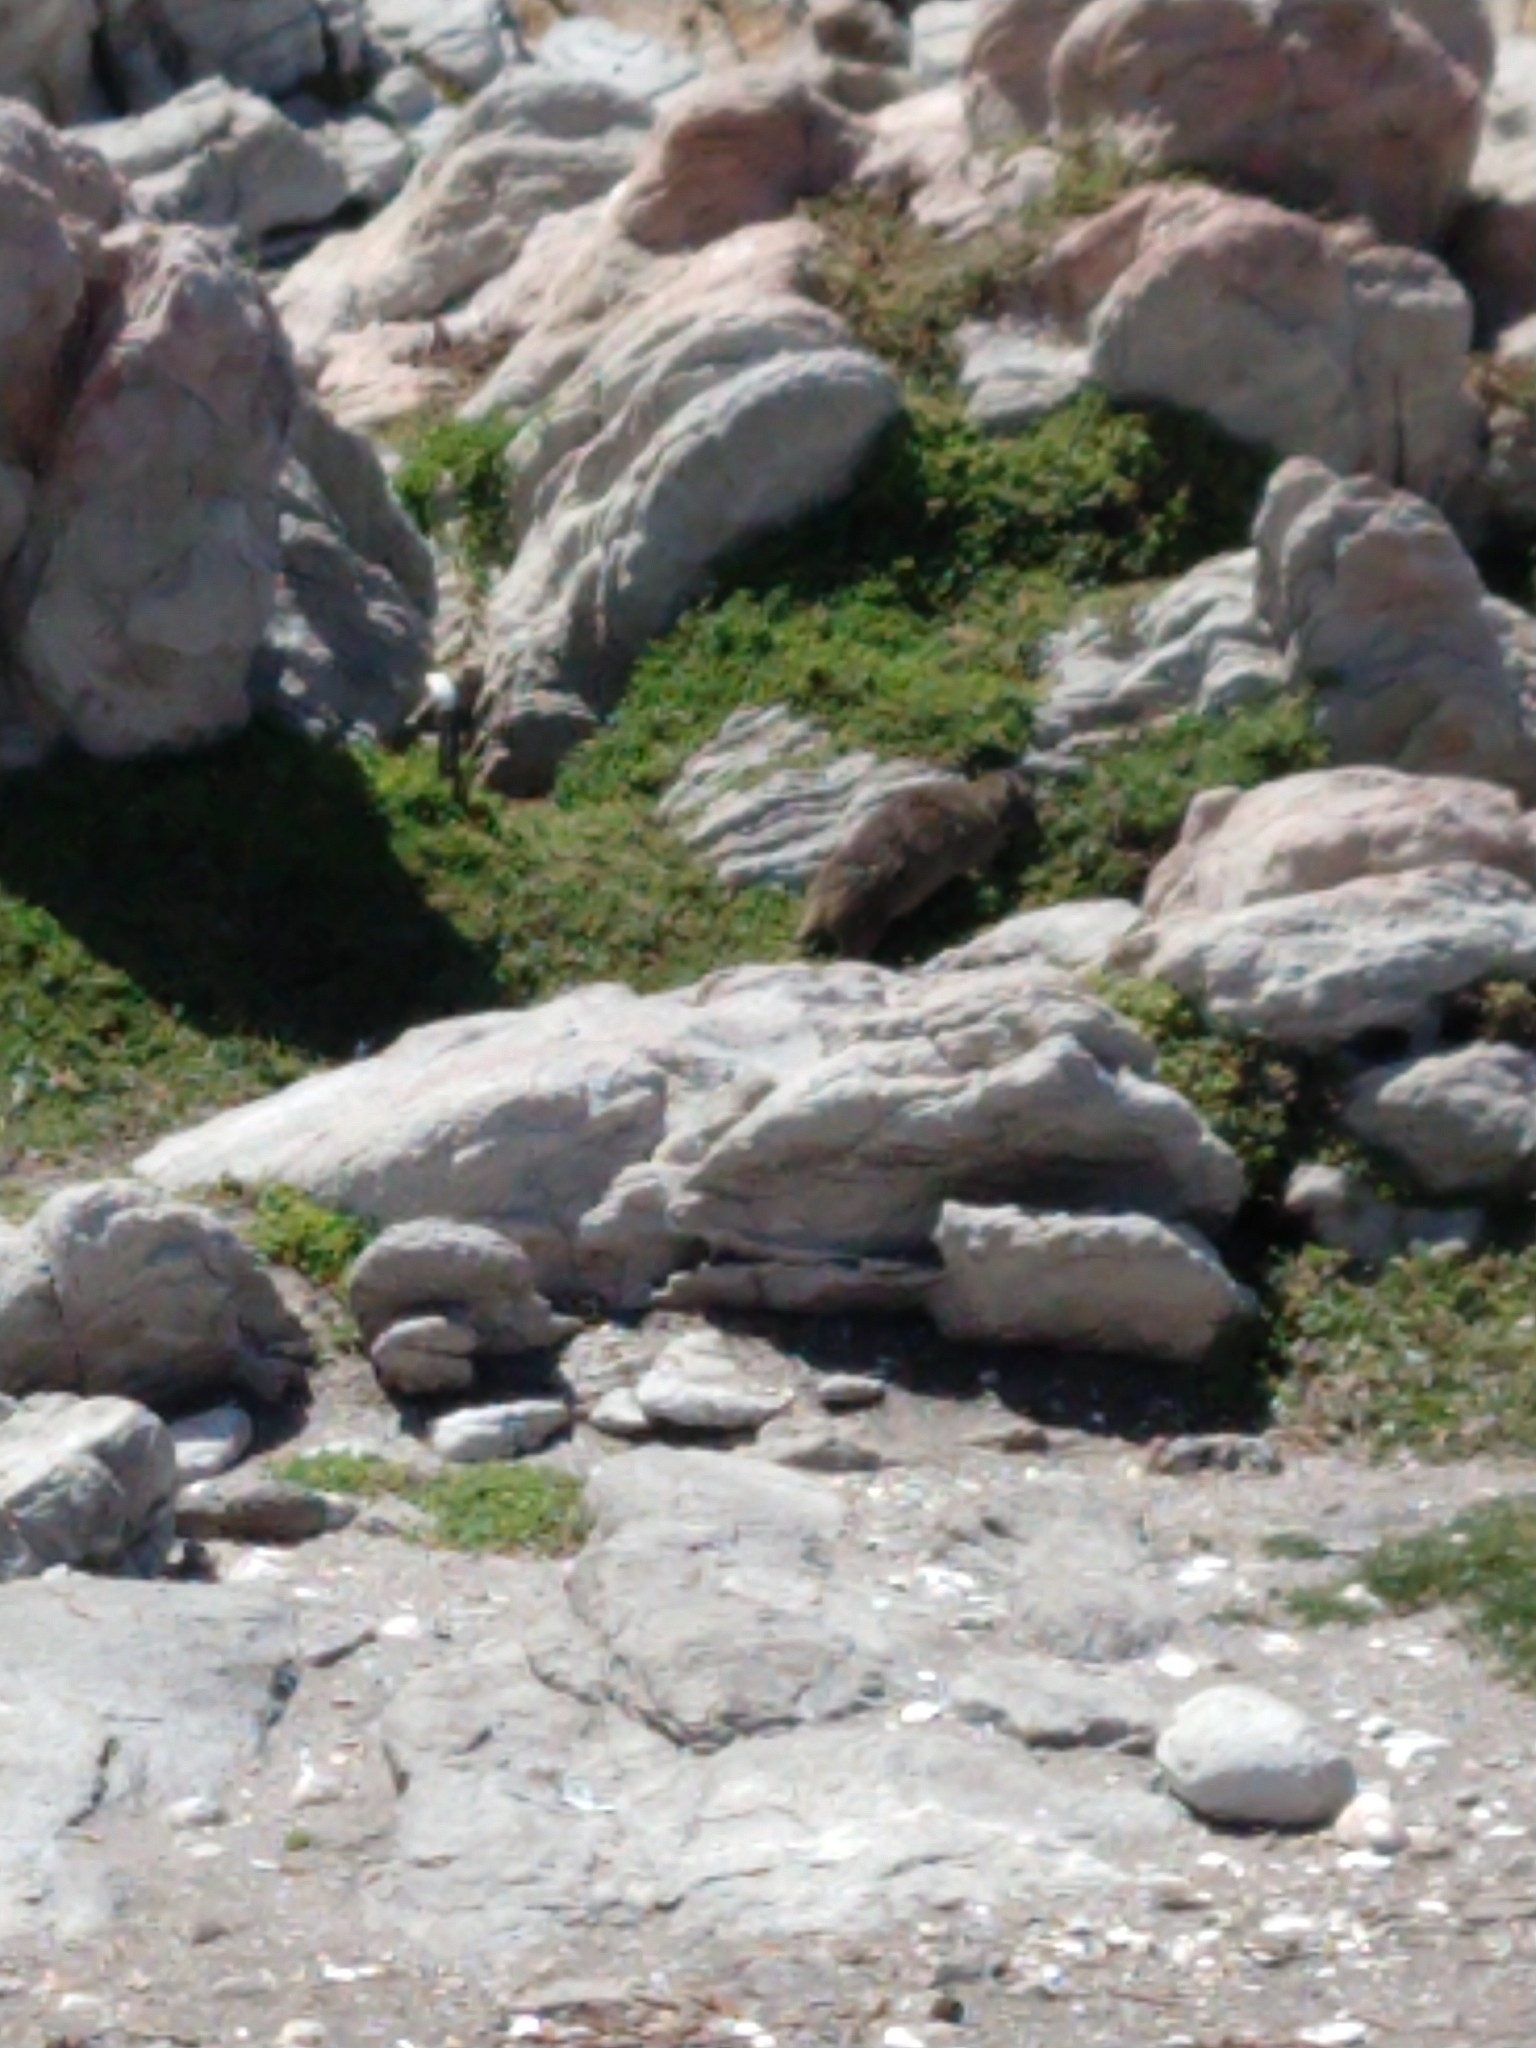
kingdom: Animalia
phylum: Chordata
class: Mammalia
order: Hyracoidea
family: Procaviidae
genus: Procavia
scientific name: Procavia capensis
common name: Rock hyrax
